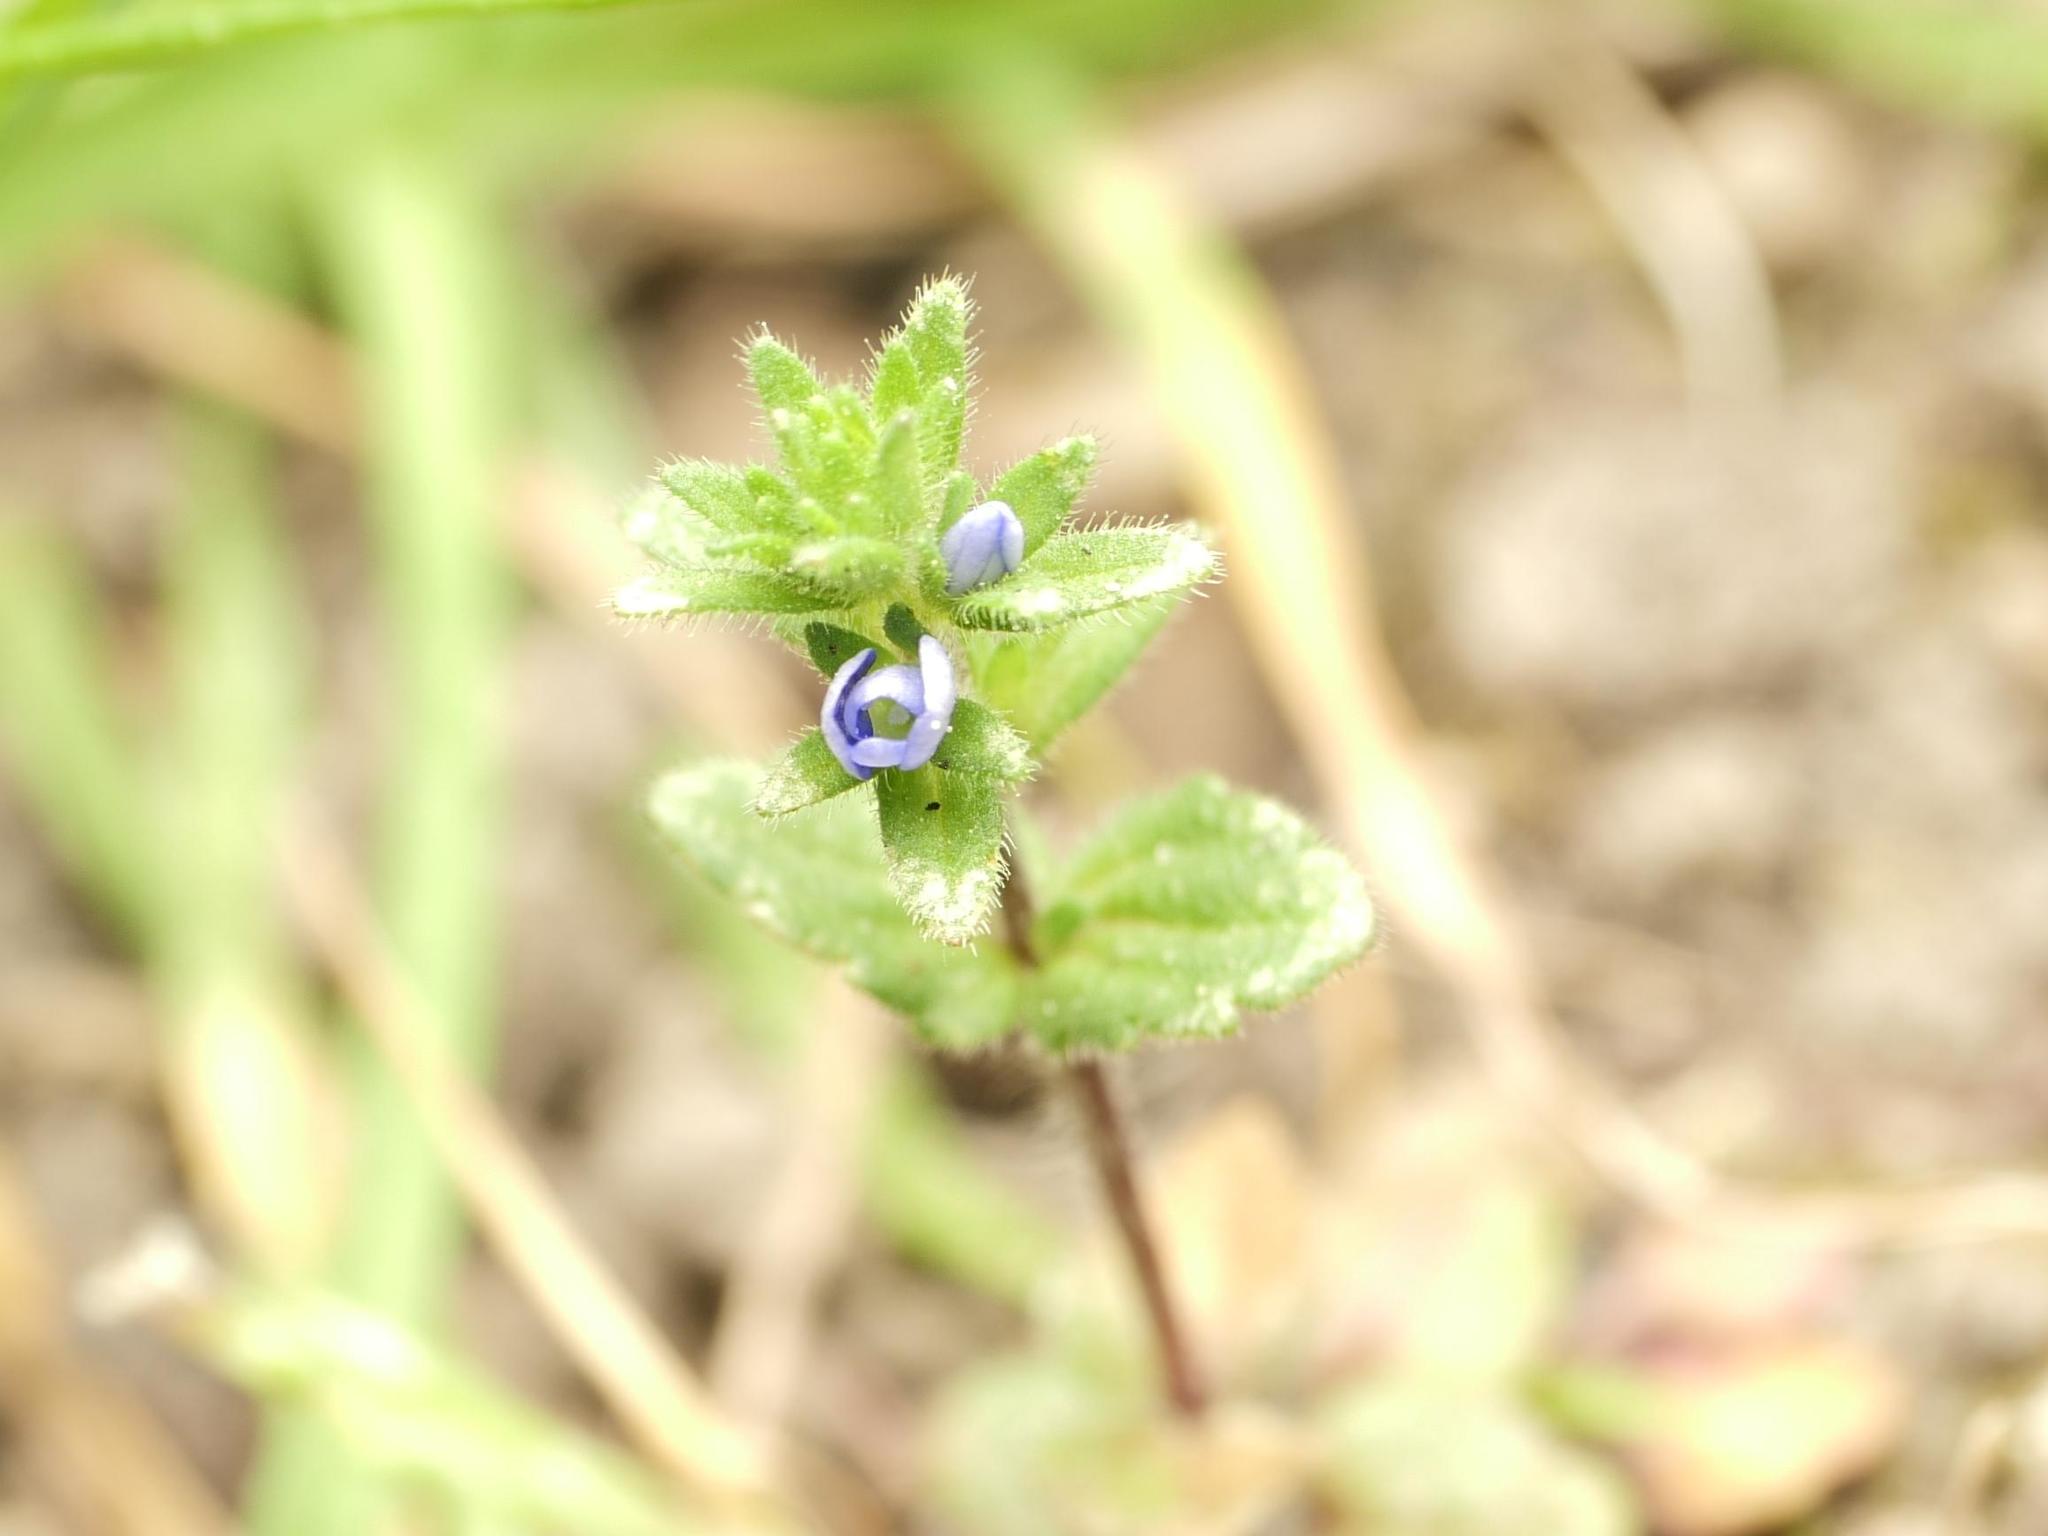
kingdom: Plantae
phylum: Tracheophyta
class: Magnoliopsida
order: Lamiales
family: Plantaginaceae
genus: Veronica
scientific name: Veronica arvensis
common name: Corn speedwell
